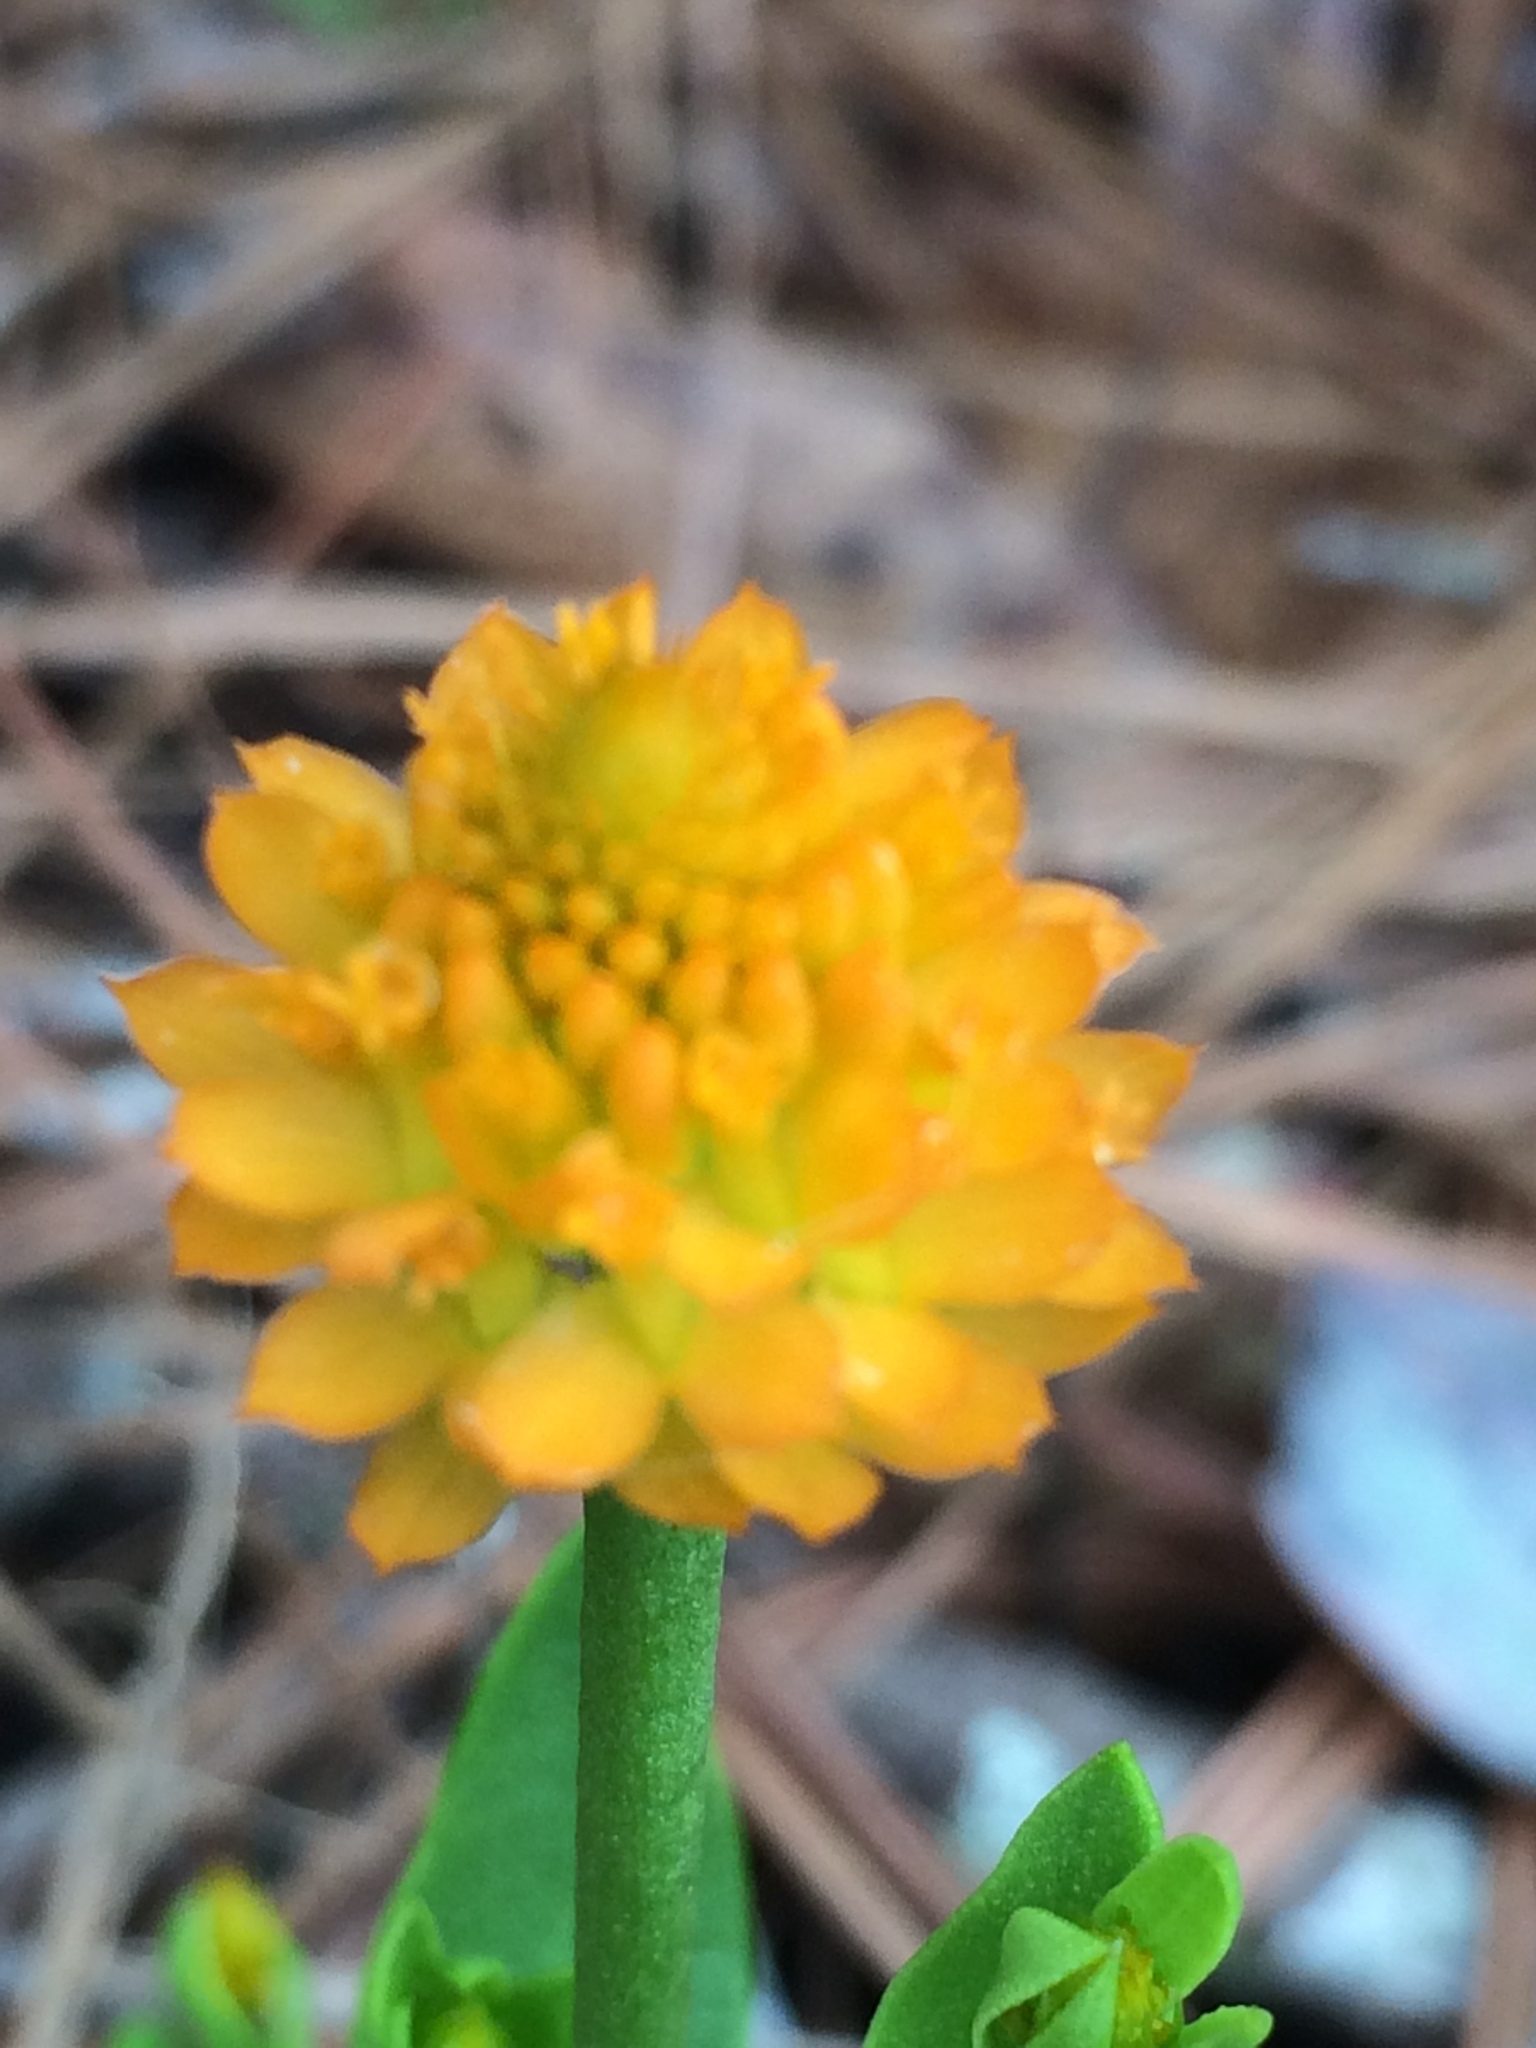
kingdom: Plantae
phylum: Tracheophyta
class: Magnoliopsida
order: Fabales
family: Polygalaceae
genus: Polygala
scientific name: Polygala lutea
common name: Orange milkwort
